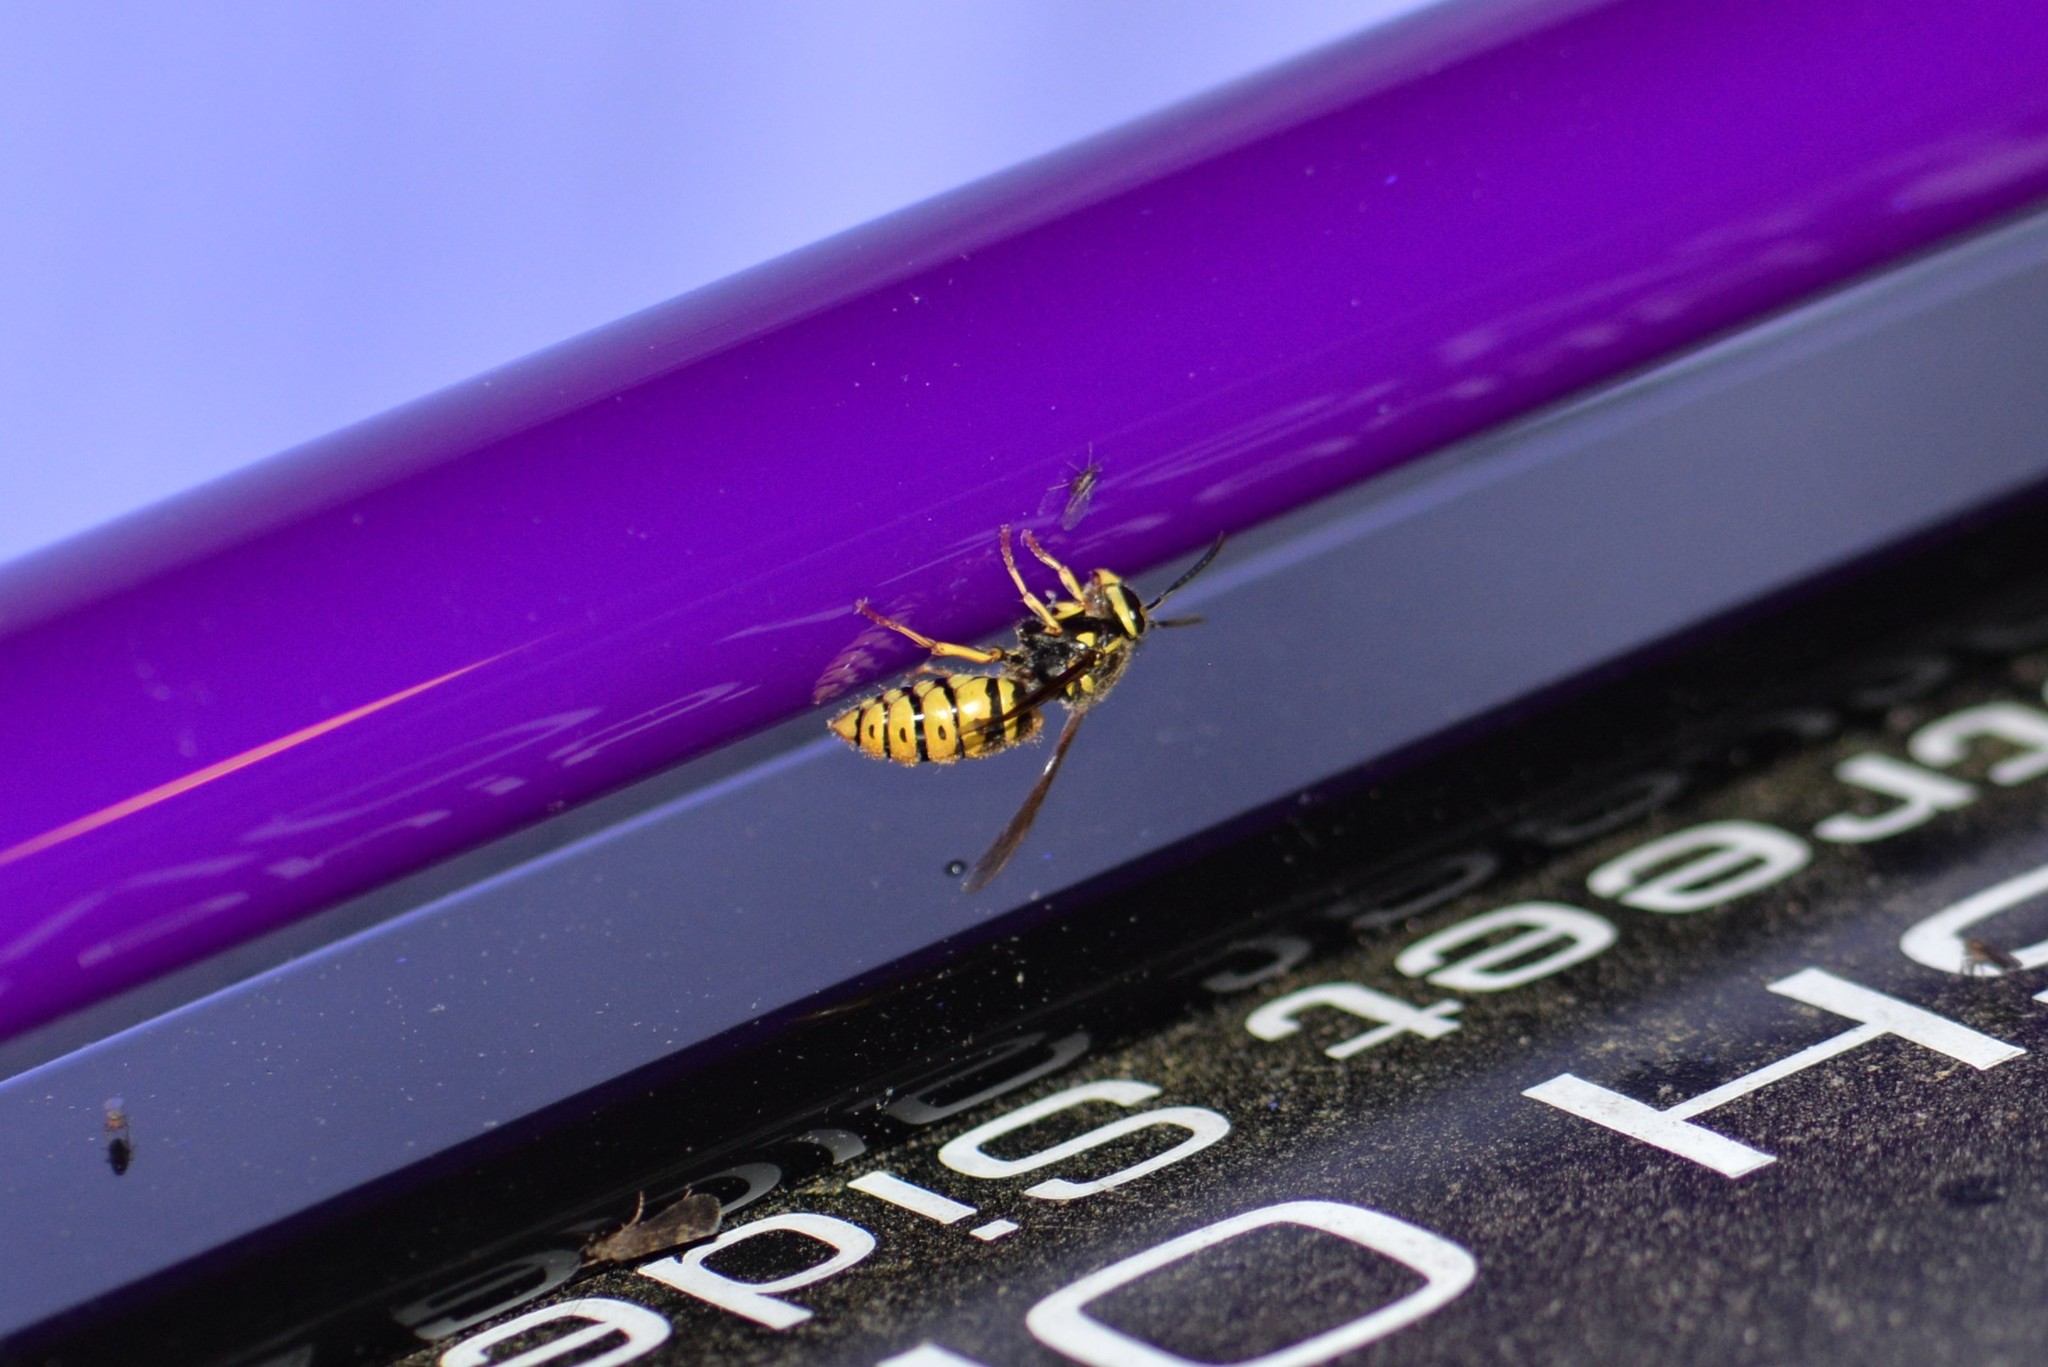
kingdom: Animalia
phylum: Arthropoda
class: Insecta
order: Hymenoptera
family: Vespidae
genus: Vespula
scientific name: Vespula flavopilosa
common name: Downy yellowjacket
